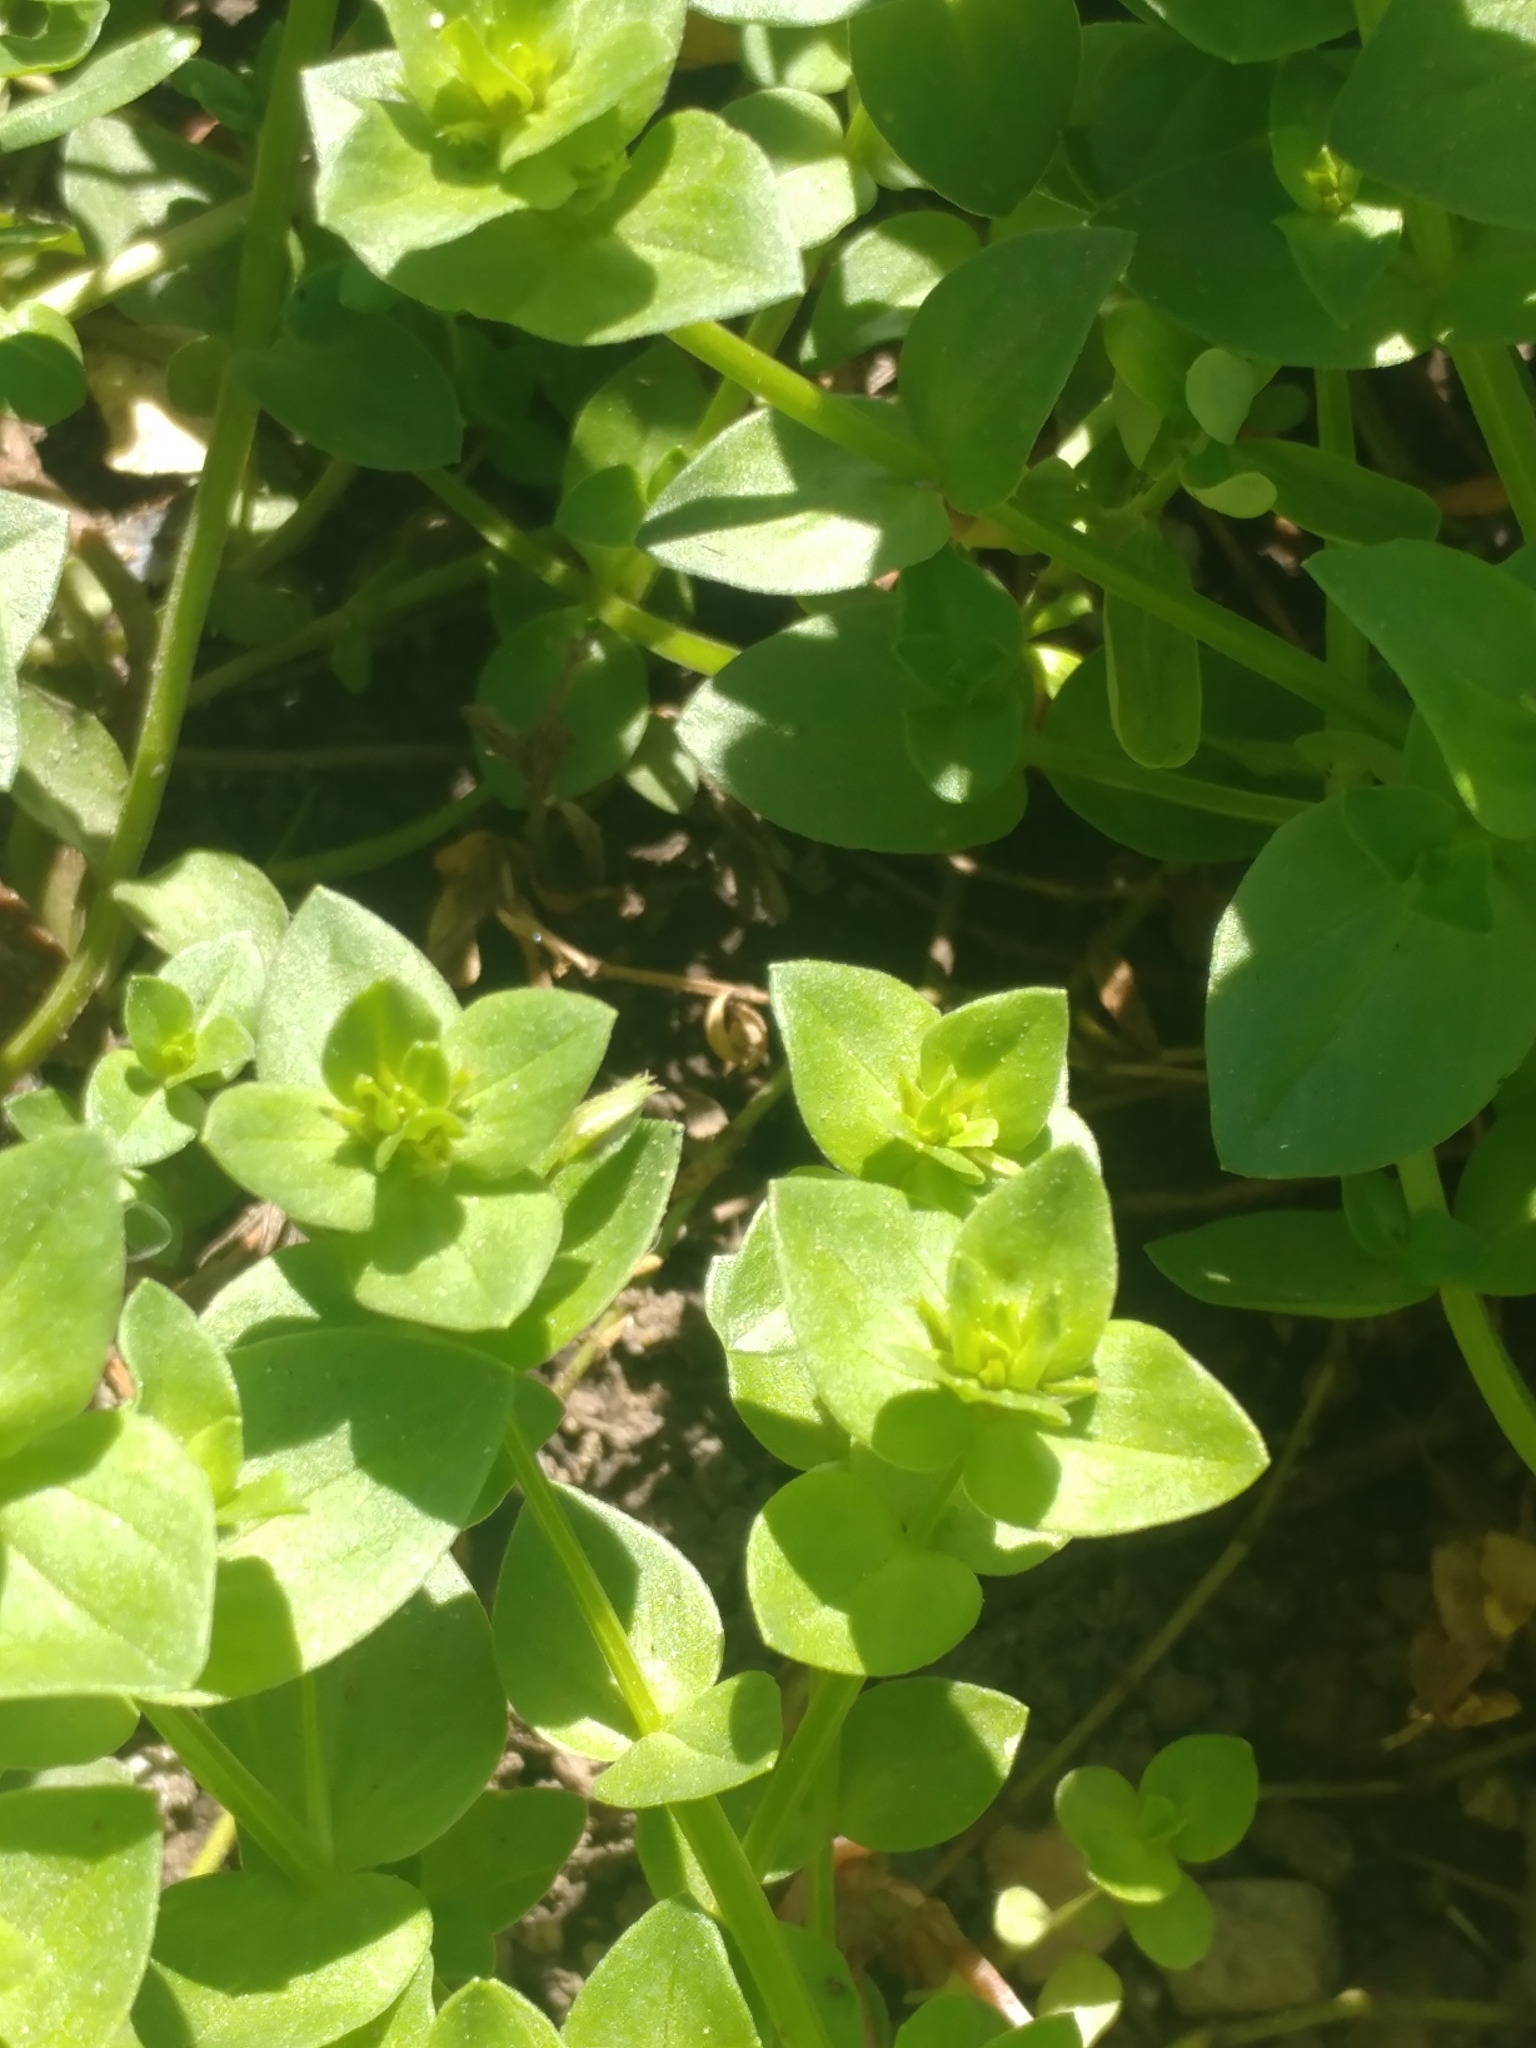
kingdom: Plantae
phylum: Tracheophyta
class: Magnoliopsida
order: Ericales
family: Primulaceae
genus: Lysimachia
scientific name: Lysimachia arvensis
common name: Scarlet pimpernel
